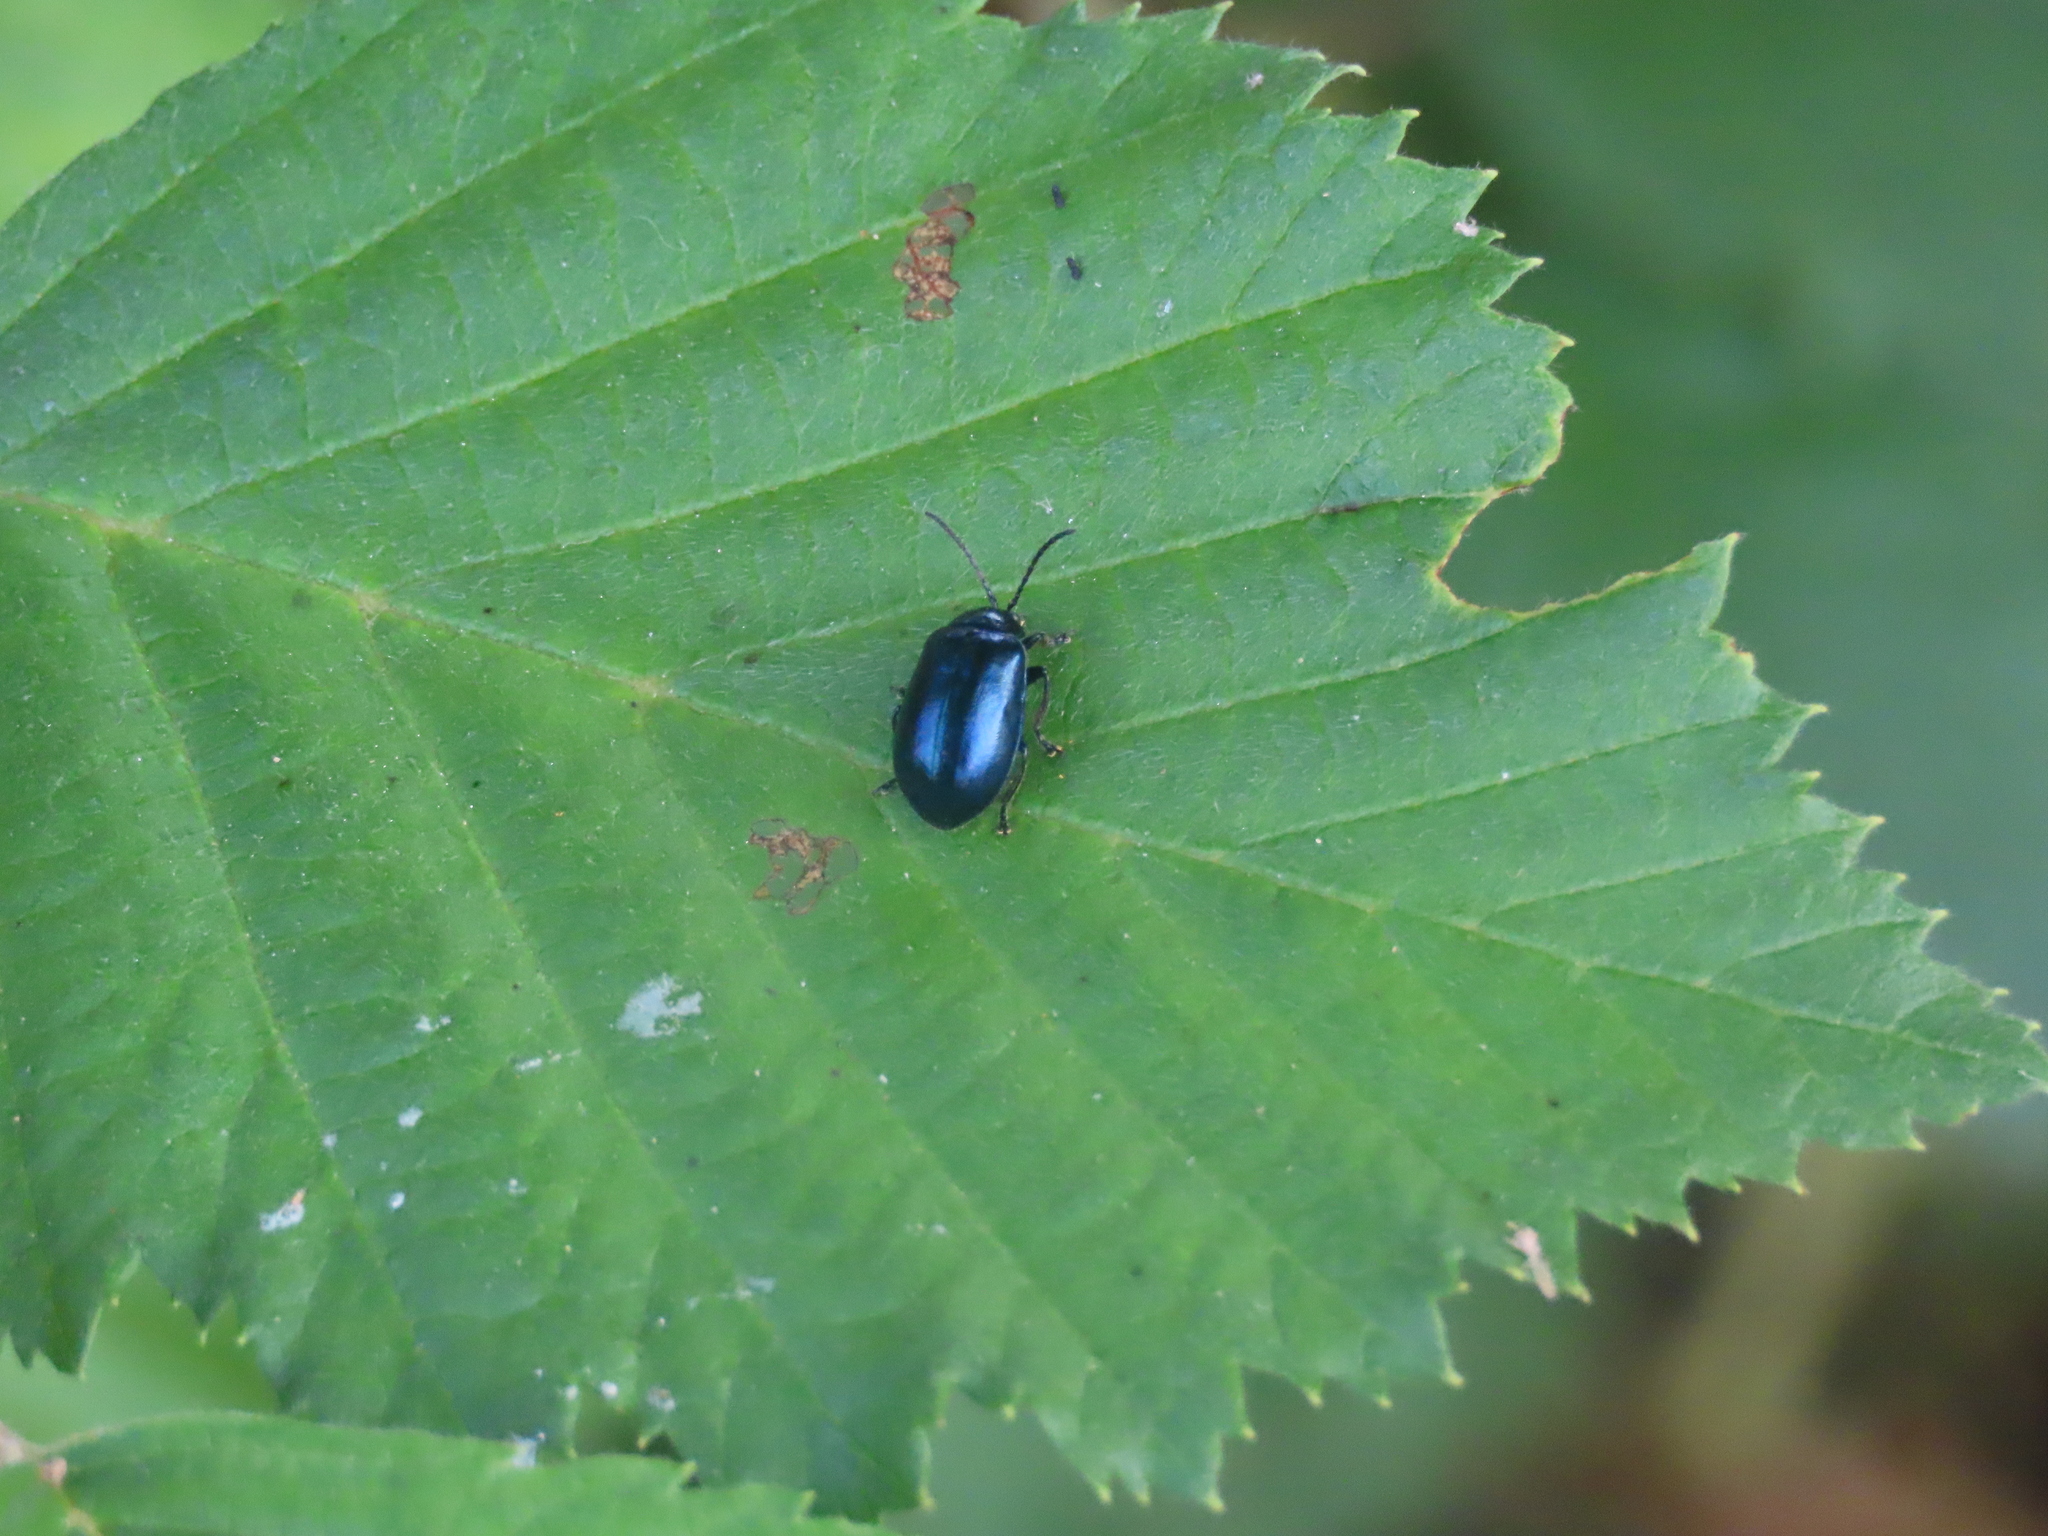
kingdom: Animalia
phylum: Arthropoda
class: Insecta
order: Coleoptera
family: Chrysomelidae
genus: Agelastica
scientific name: Agelastica alni
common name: Alder leaf beetle
